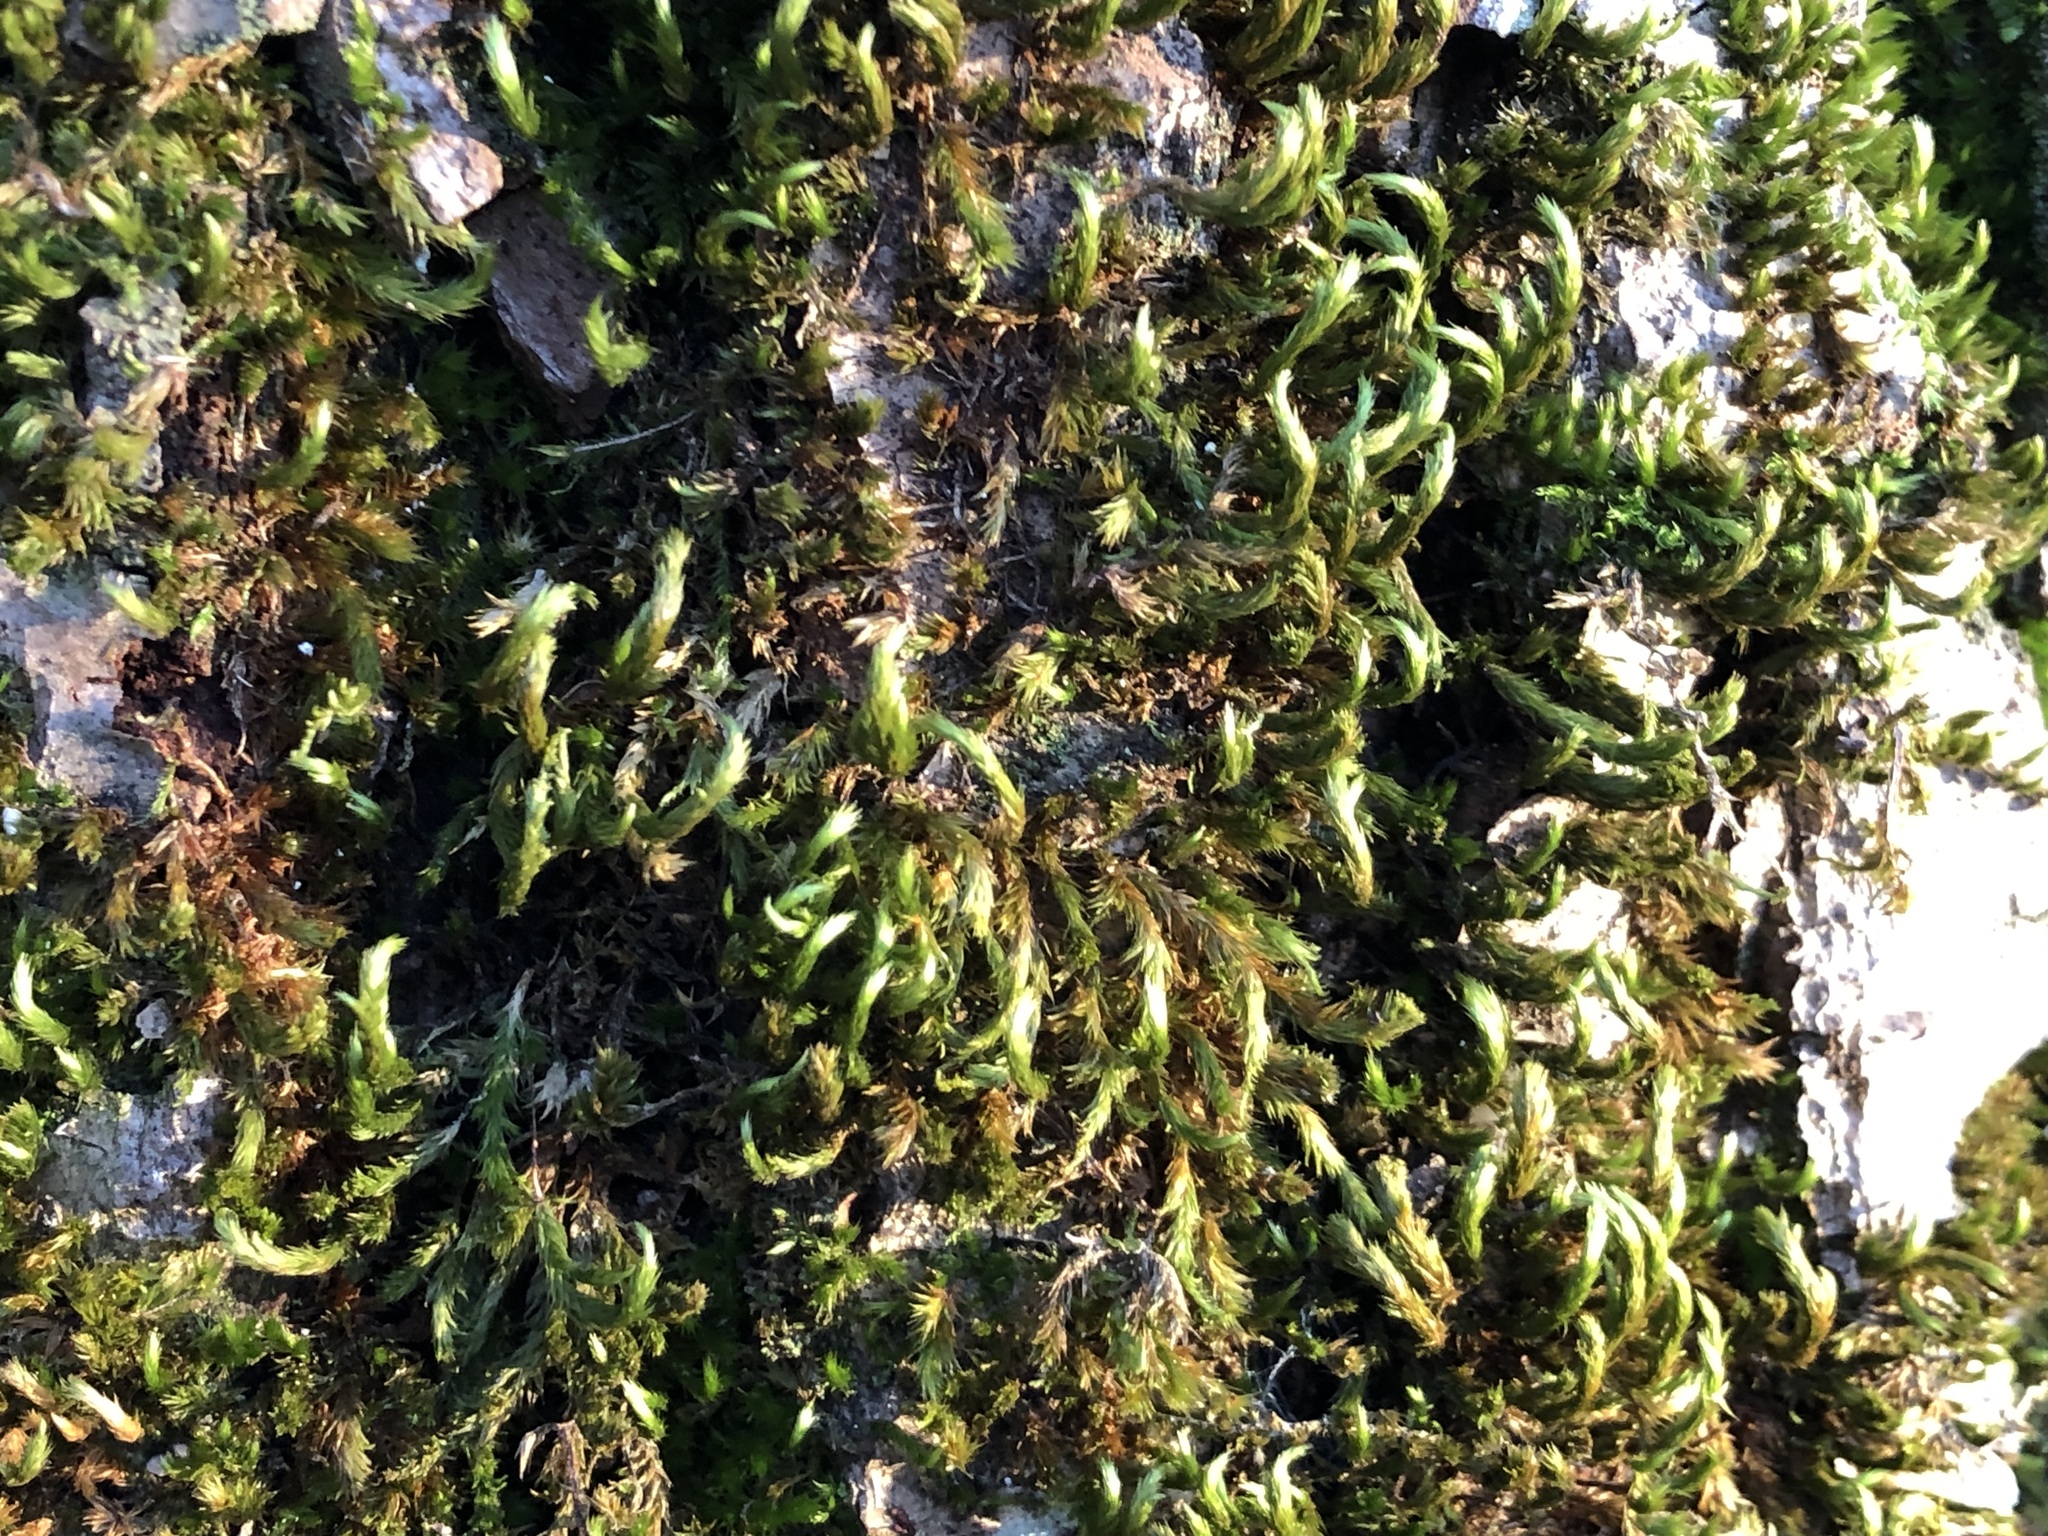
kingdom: Plantae
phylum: Bryophyta
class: Bryopsida
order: Hypnales
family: Leucodontaceae
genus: Leucodon
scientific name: Leucodon sciuroides
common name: Squirrel-tail moss
